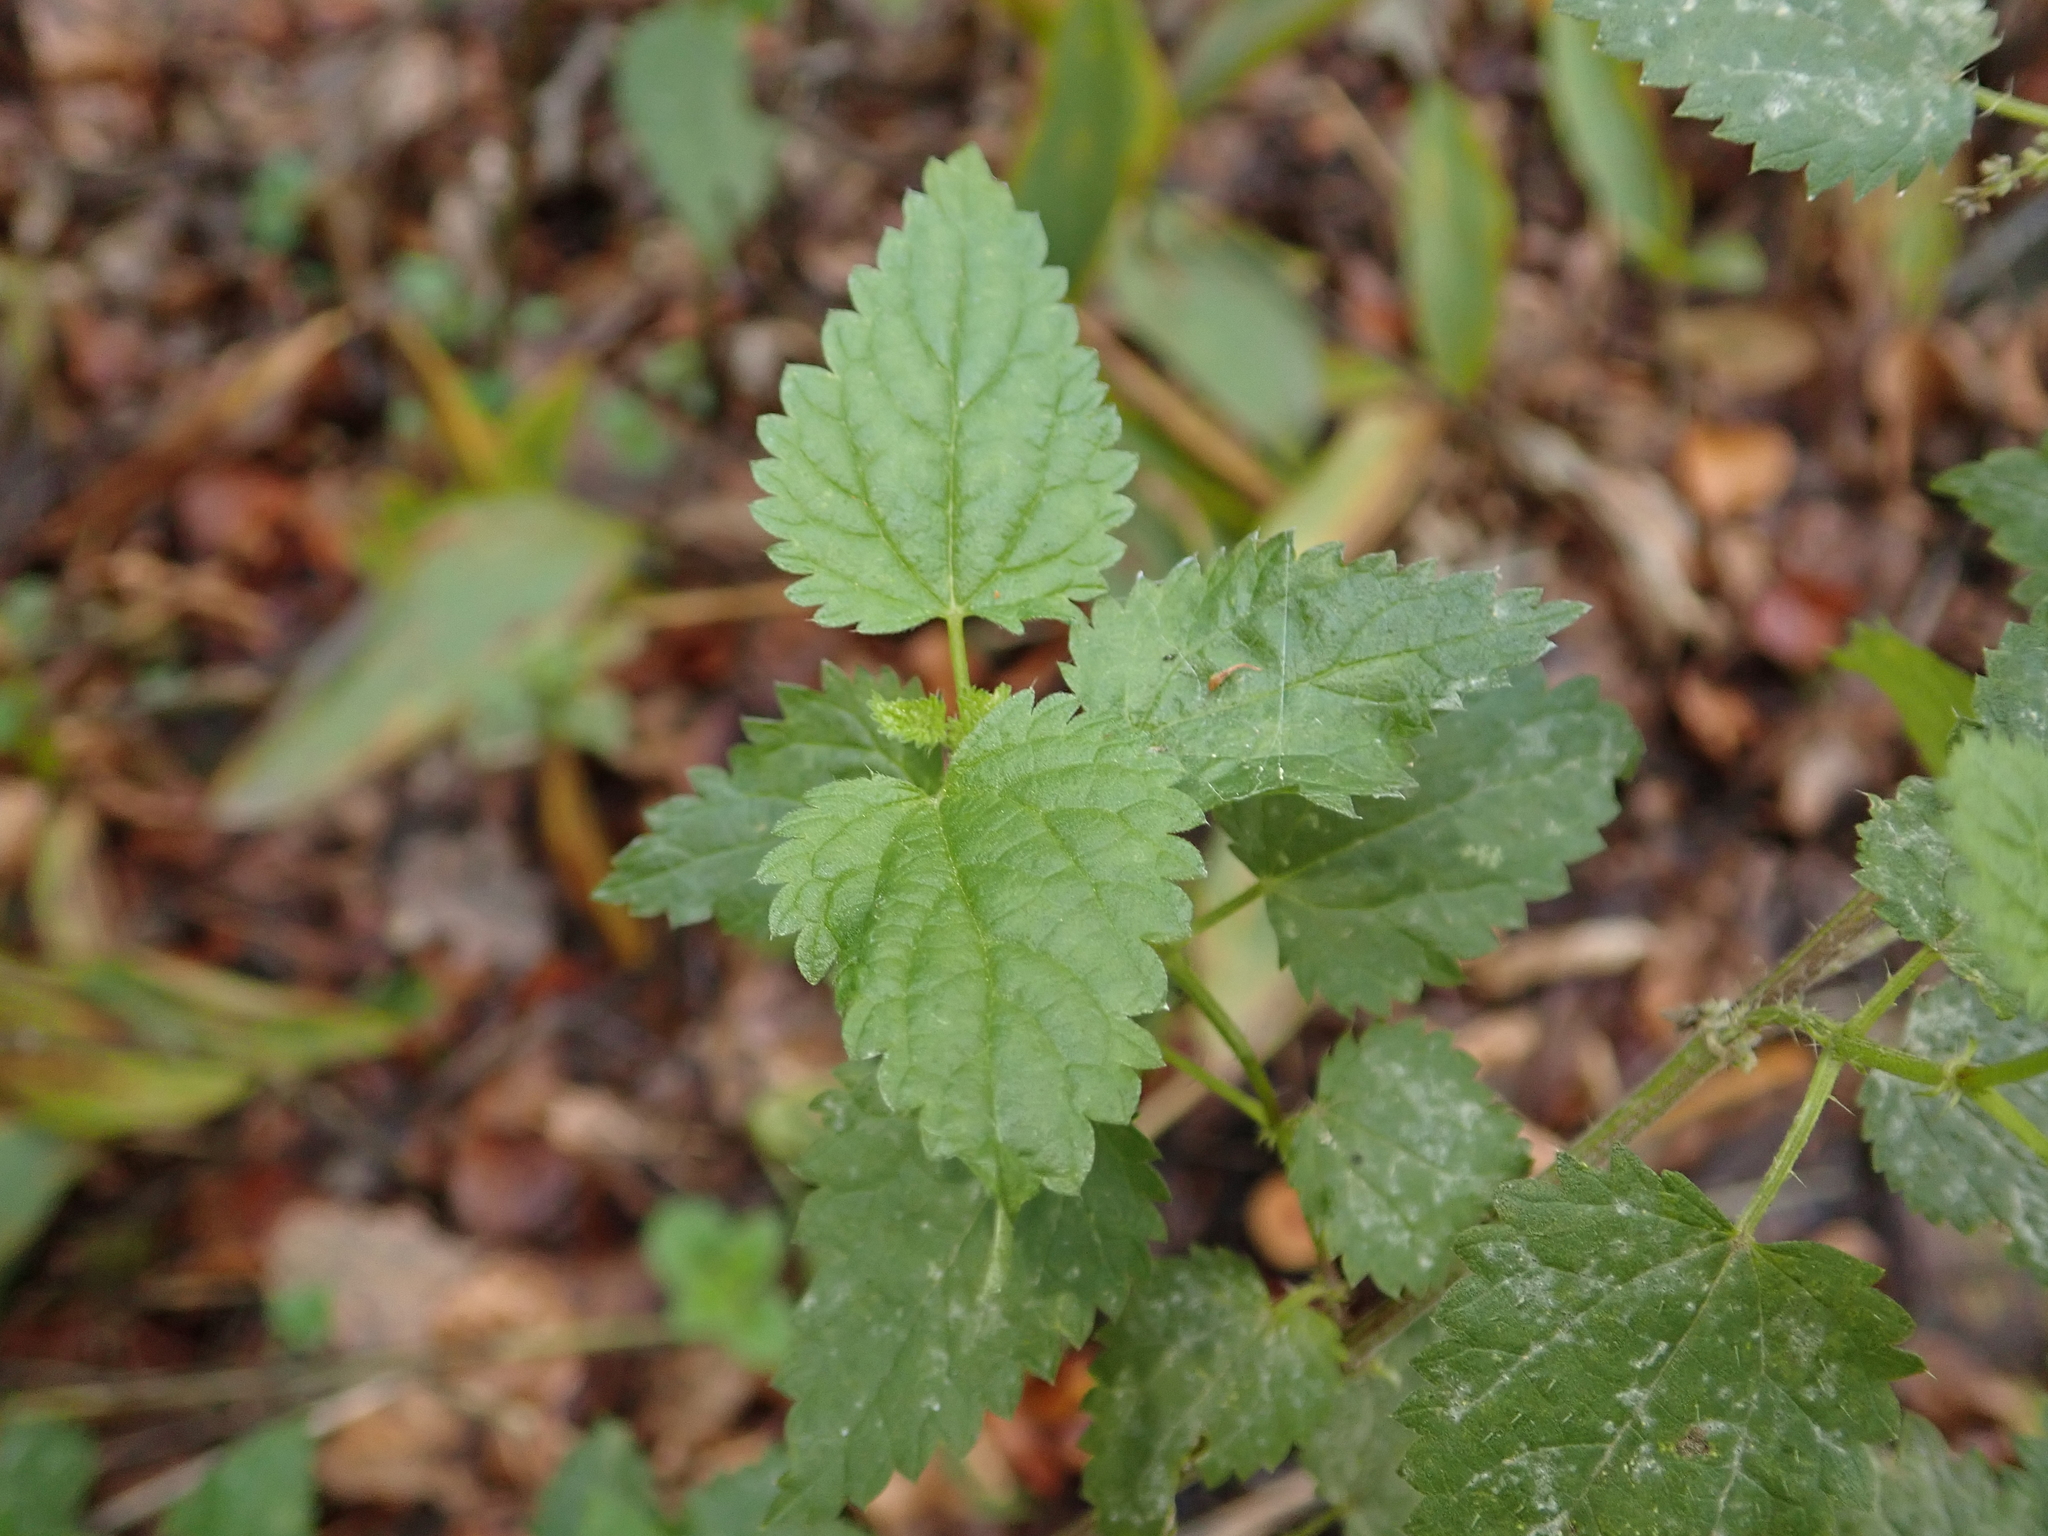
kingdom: Plantae
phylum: Tracheophyta
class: Magnoliopsida
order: Rosales
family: Urticaceae
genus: Urtica
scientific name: Urtica dioica
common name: Common nettle
